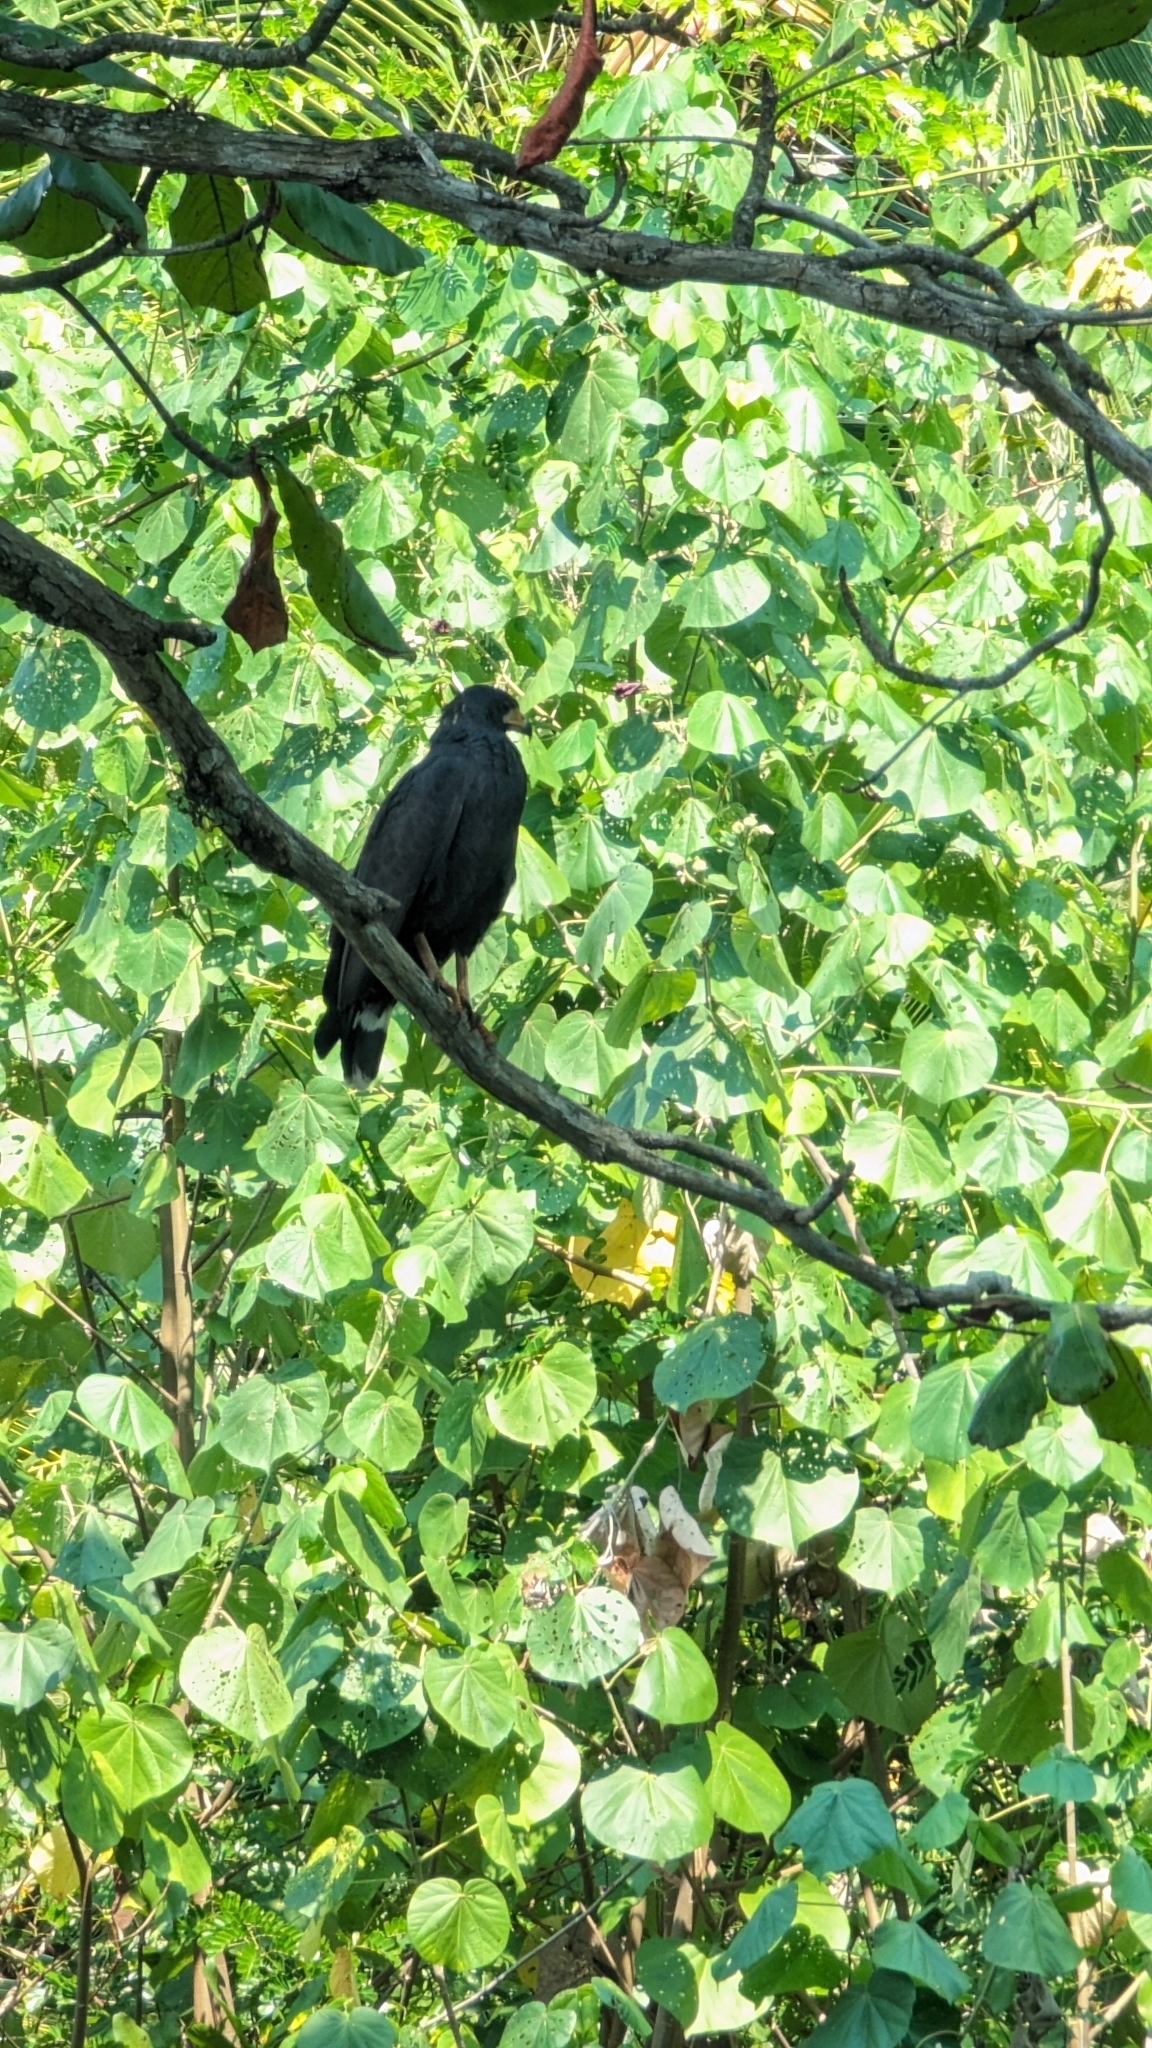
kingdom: Animalia
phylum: Chordata
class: Aves
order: Accipitriformes
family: Accipitridae
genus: Buteogallus
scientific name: Buteogallus anthracinus
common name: Common black hawk
